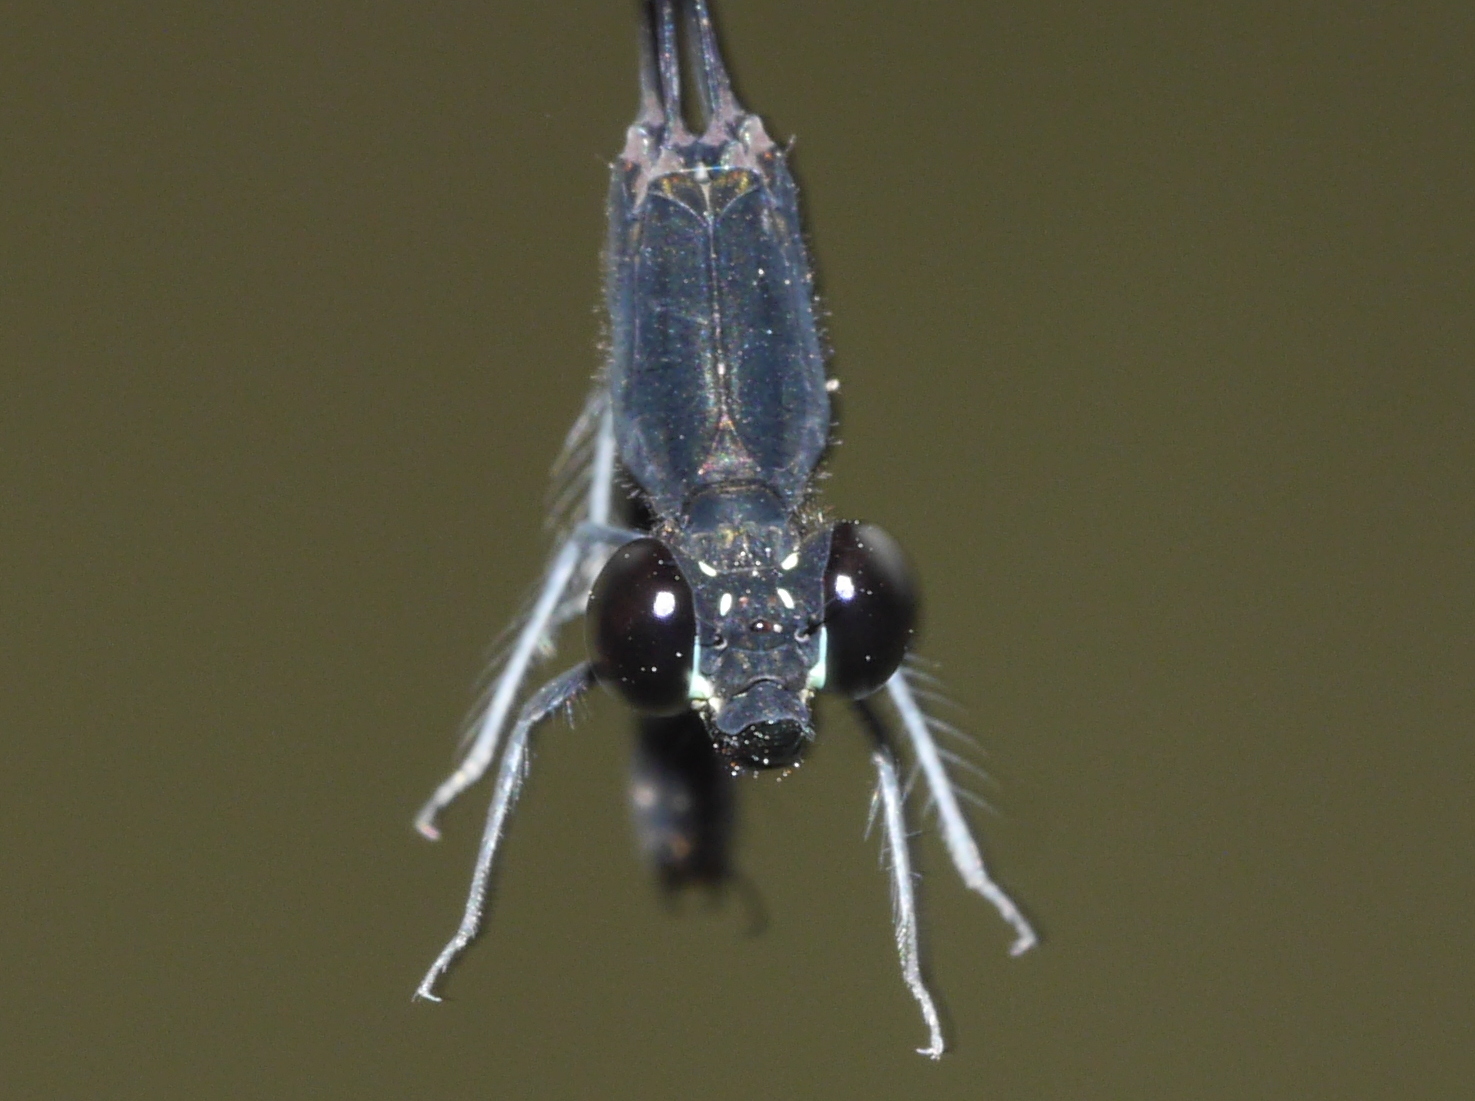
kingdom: Animalia
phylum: Arthropoda
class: Insecta
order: Odonata
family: Chlorocyphidae
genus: Libellago
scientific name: Libellago hyalina
